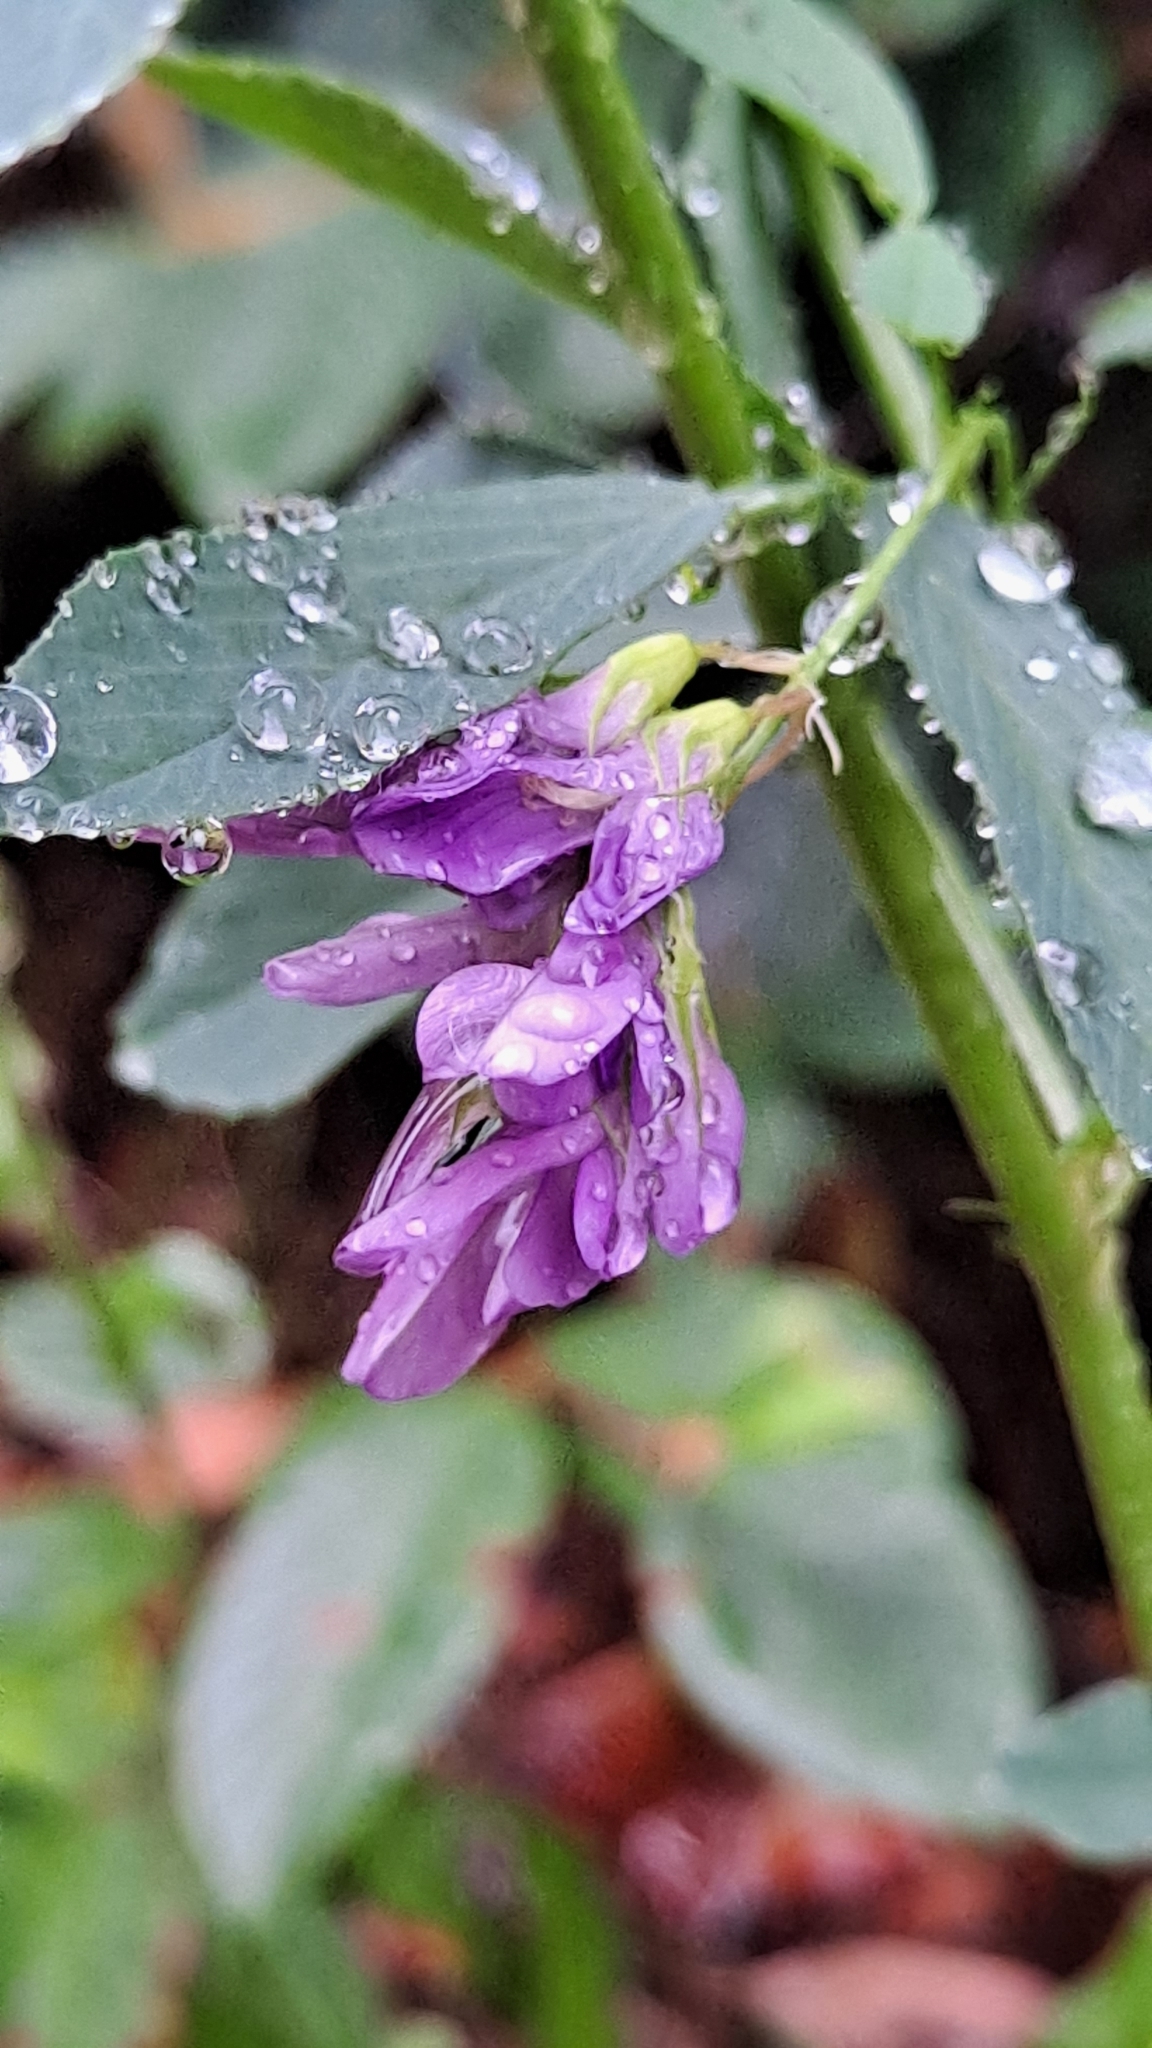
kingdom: Plantae
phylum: Tracheophyta
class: Magnoliopsida
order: Fabales
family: Fabaceae
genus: Medicago
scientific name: Medicago sativa
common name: Alfalfa
